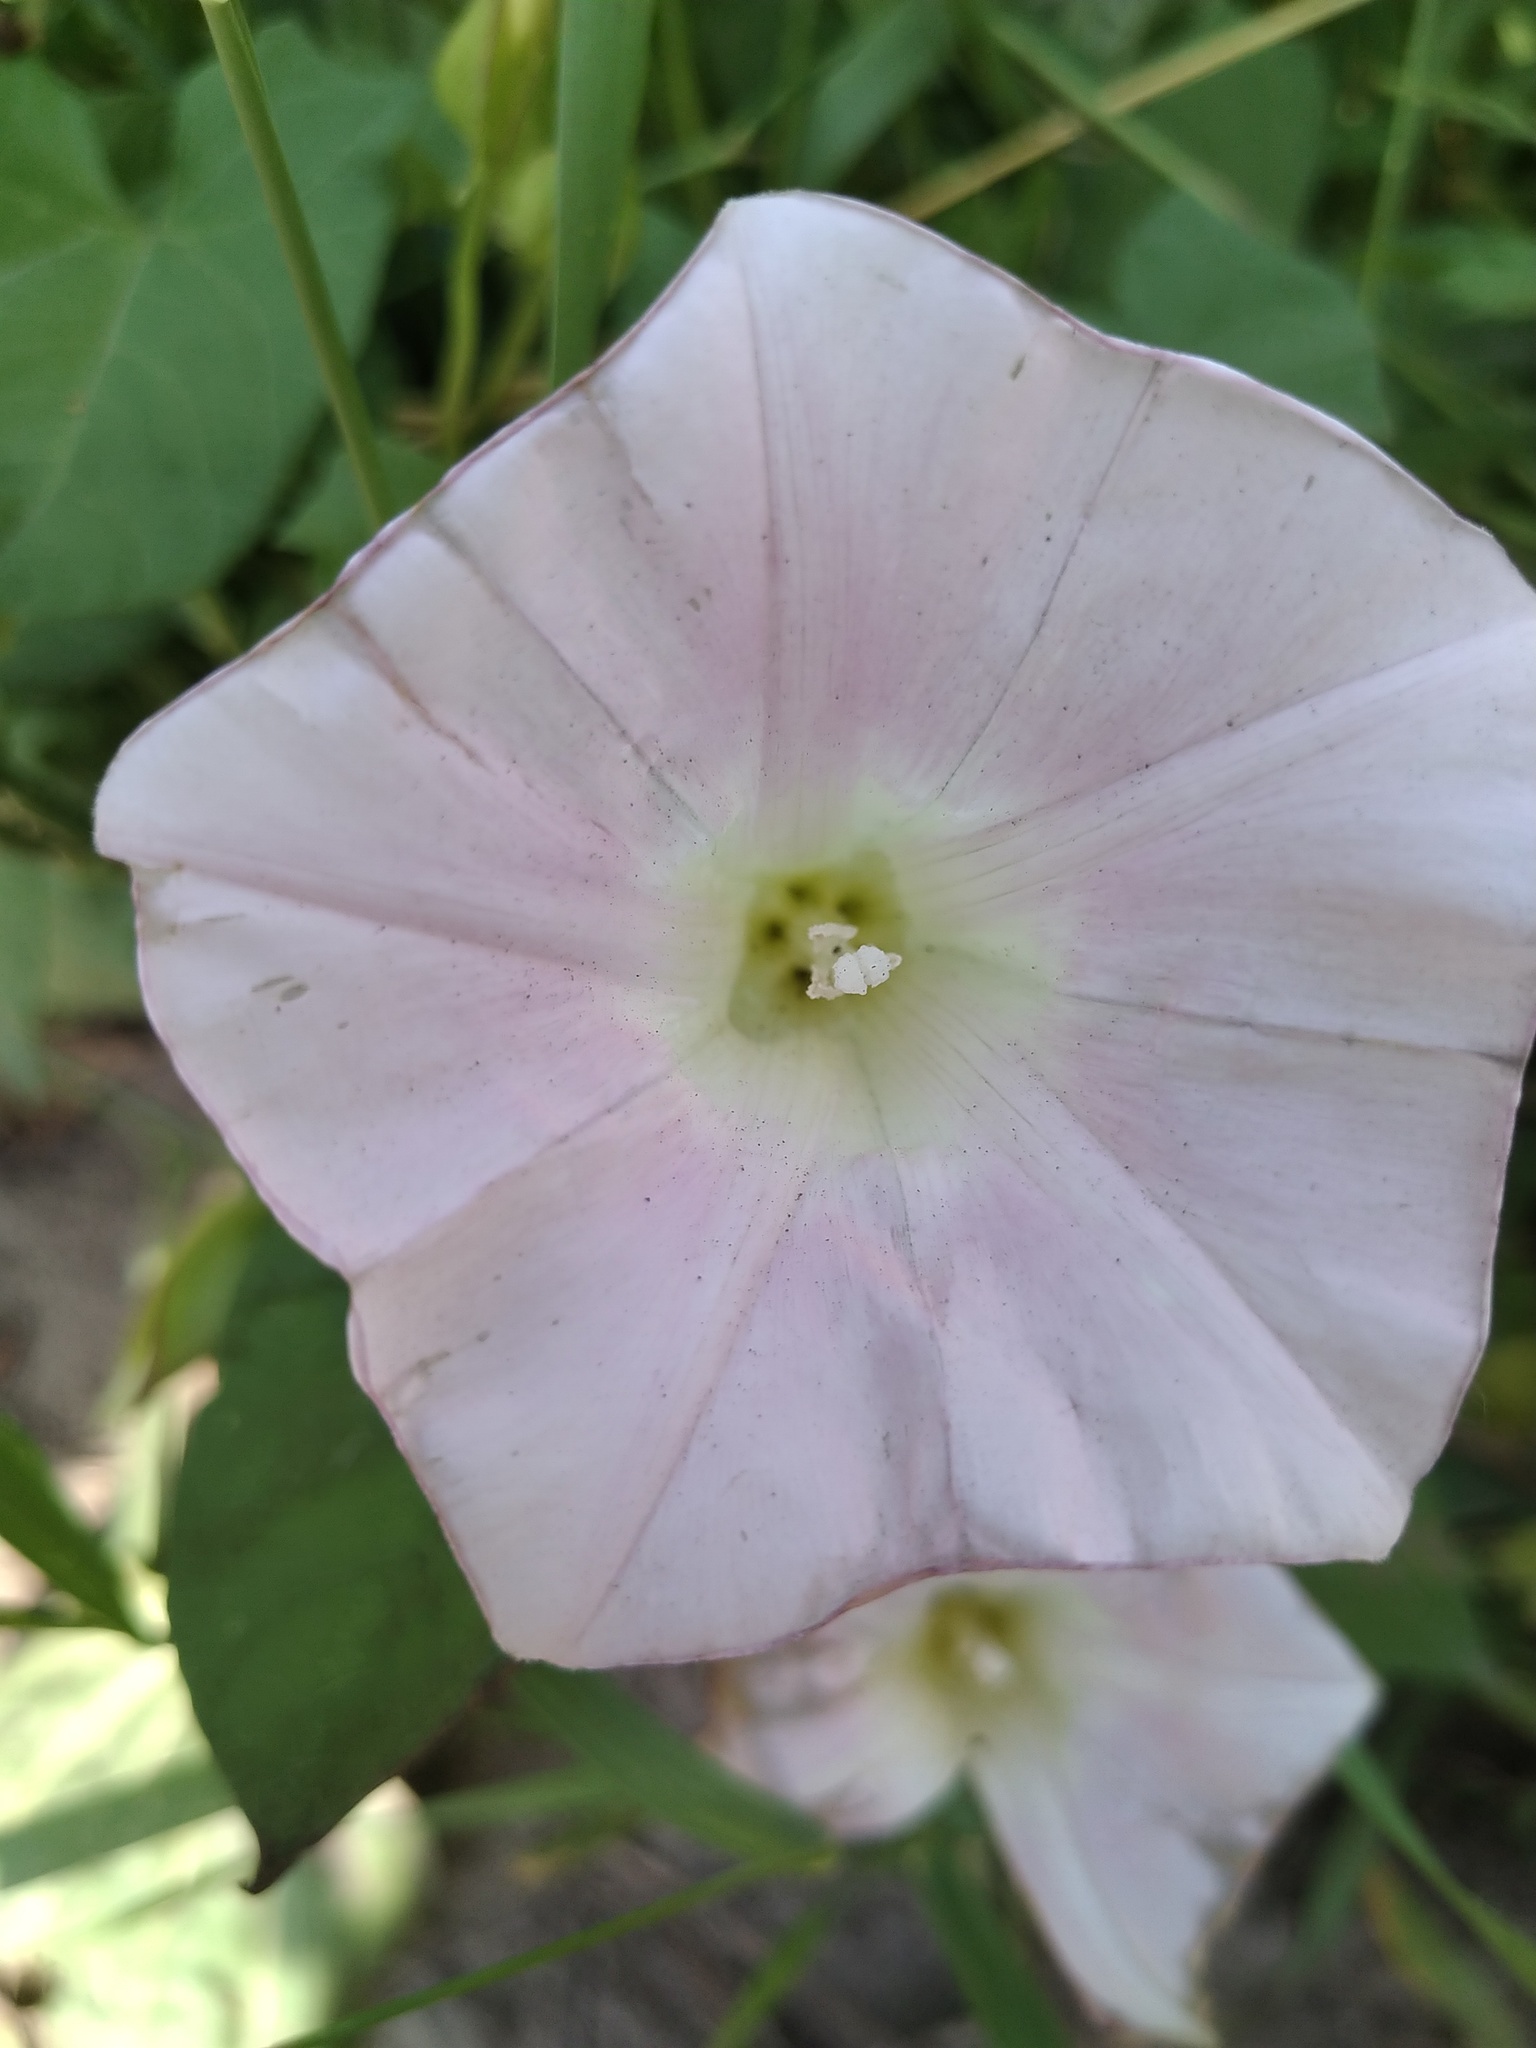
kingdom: Plantae
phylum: Tracheophyta
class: Magnoliopsida
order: Solanales
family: Convolvulaceae
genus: Calystegia
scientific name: Calystegia sepium
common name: Hedge bindweed
